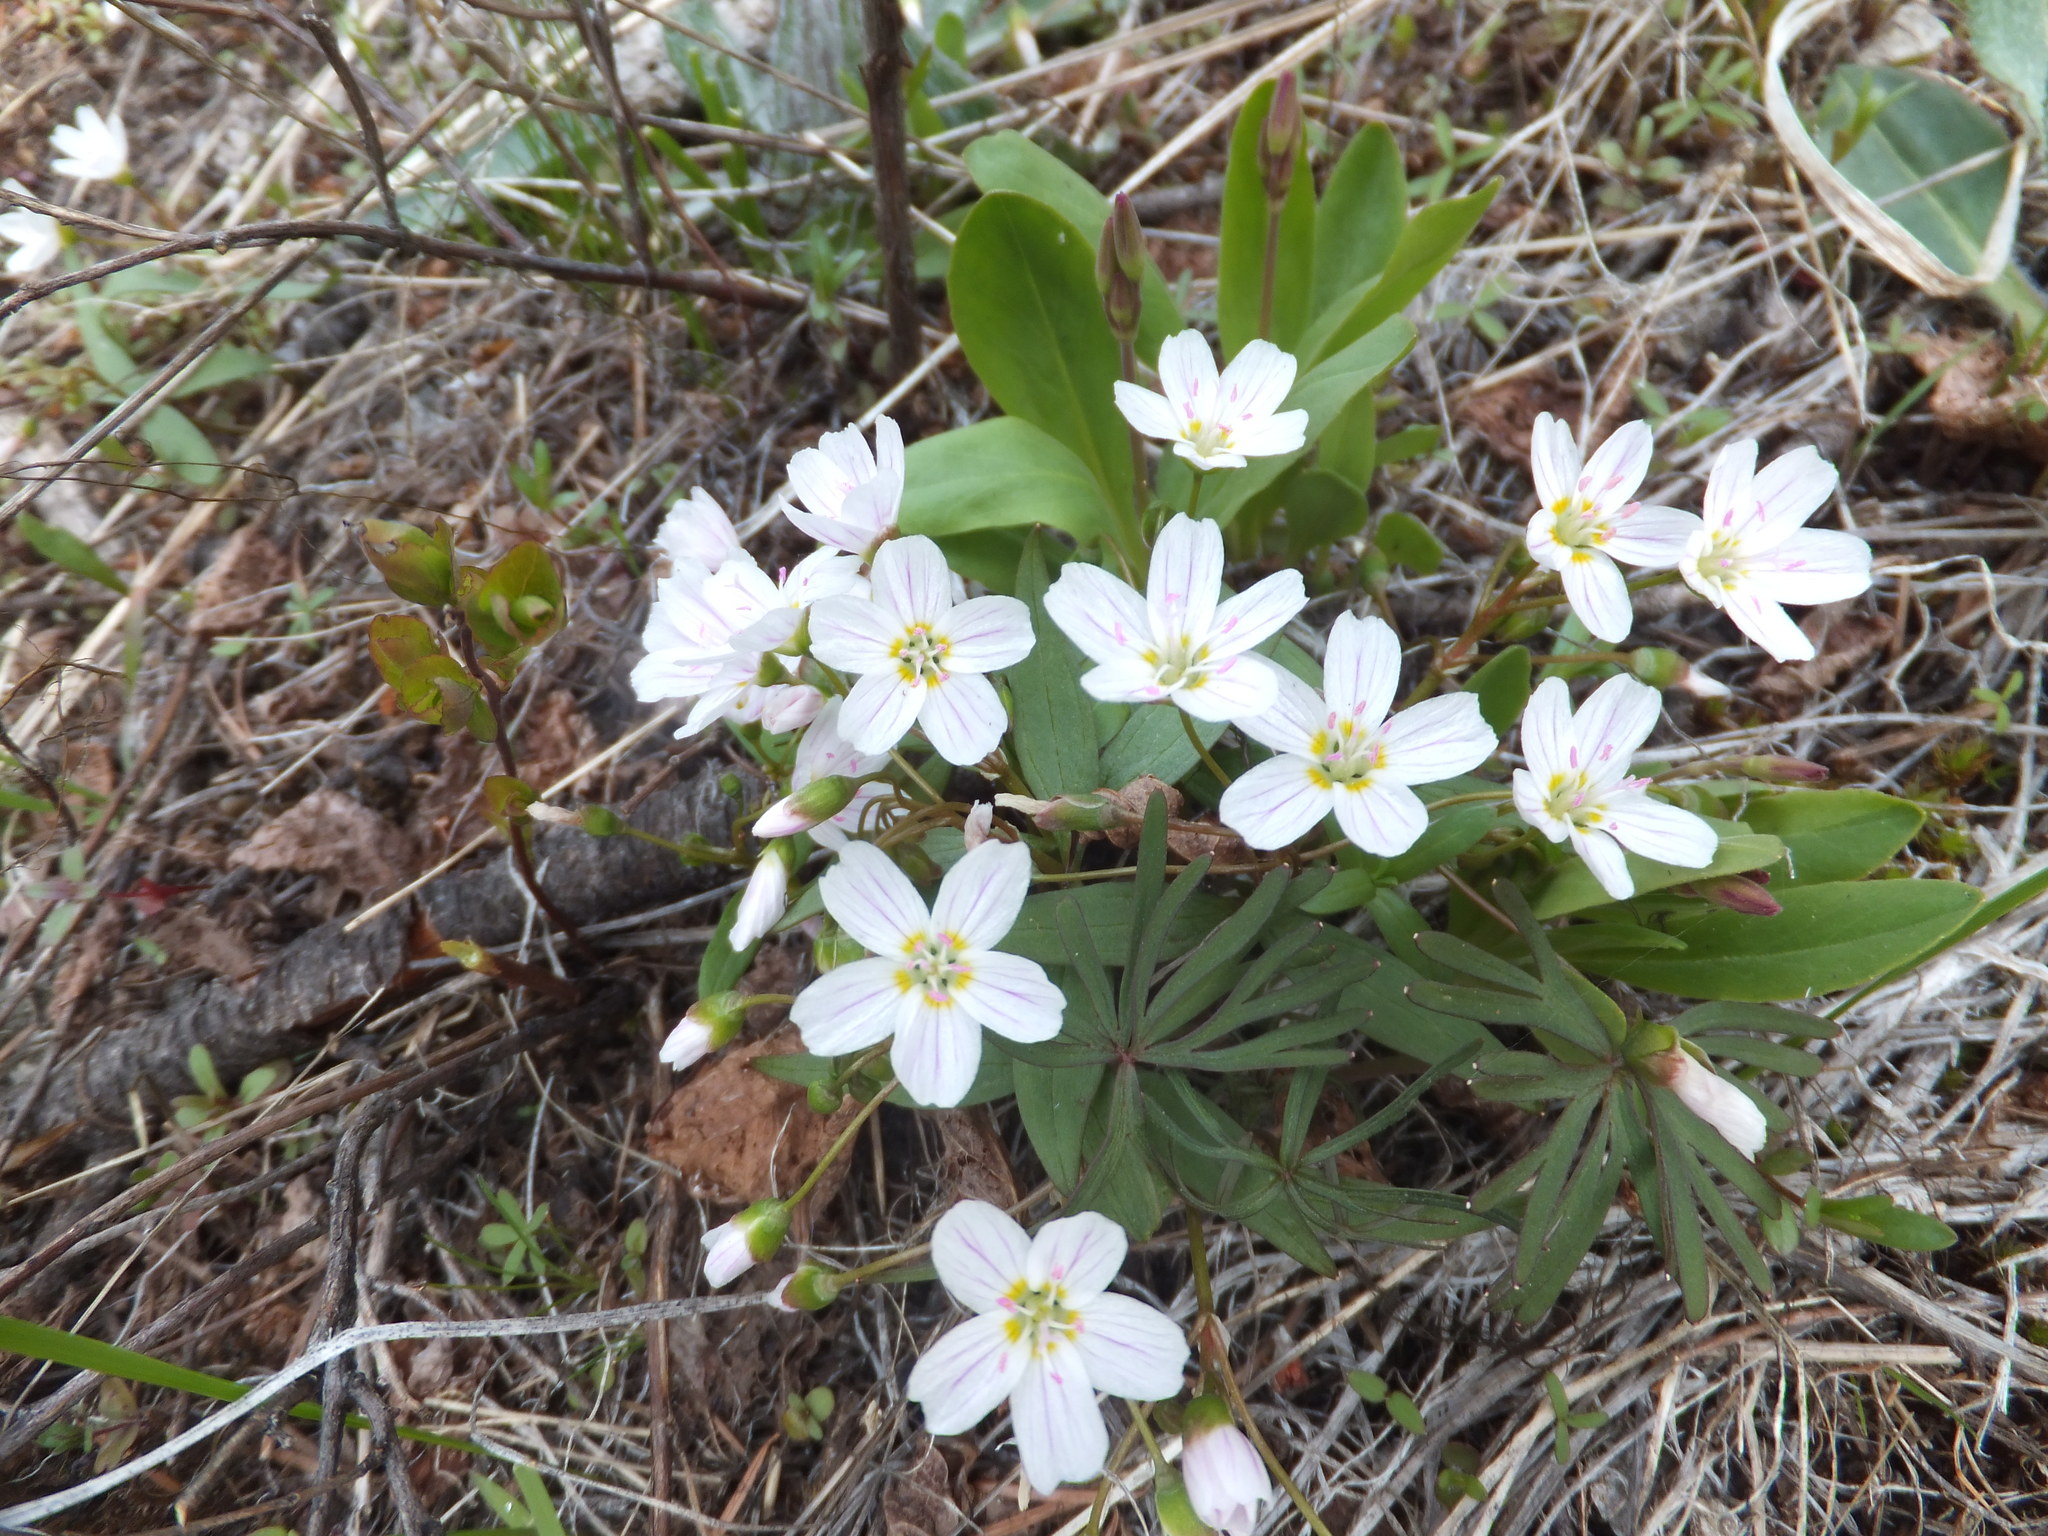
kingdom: Plantae
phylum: Tracheophyta
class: Magnoliopsida
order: Caryophyllales
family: Montiaceae
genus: Claytonia
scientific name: Claytonia lanceolata
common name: Western spring-beauty
